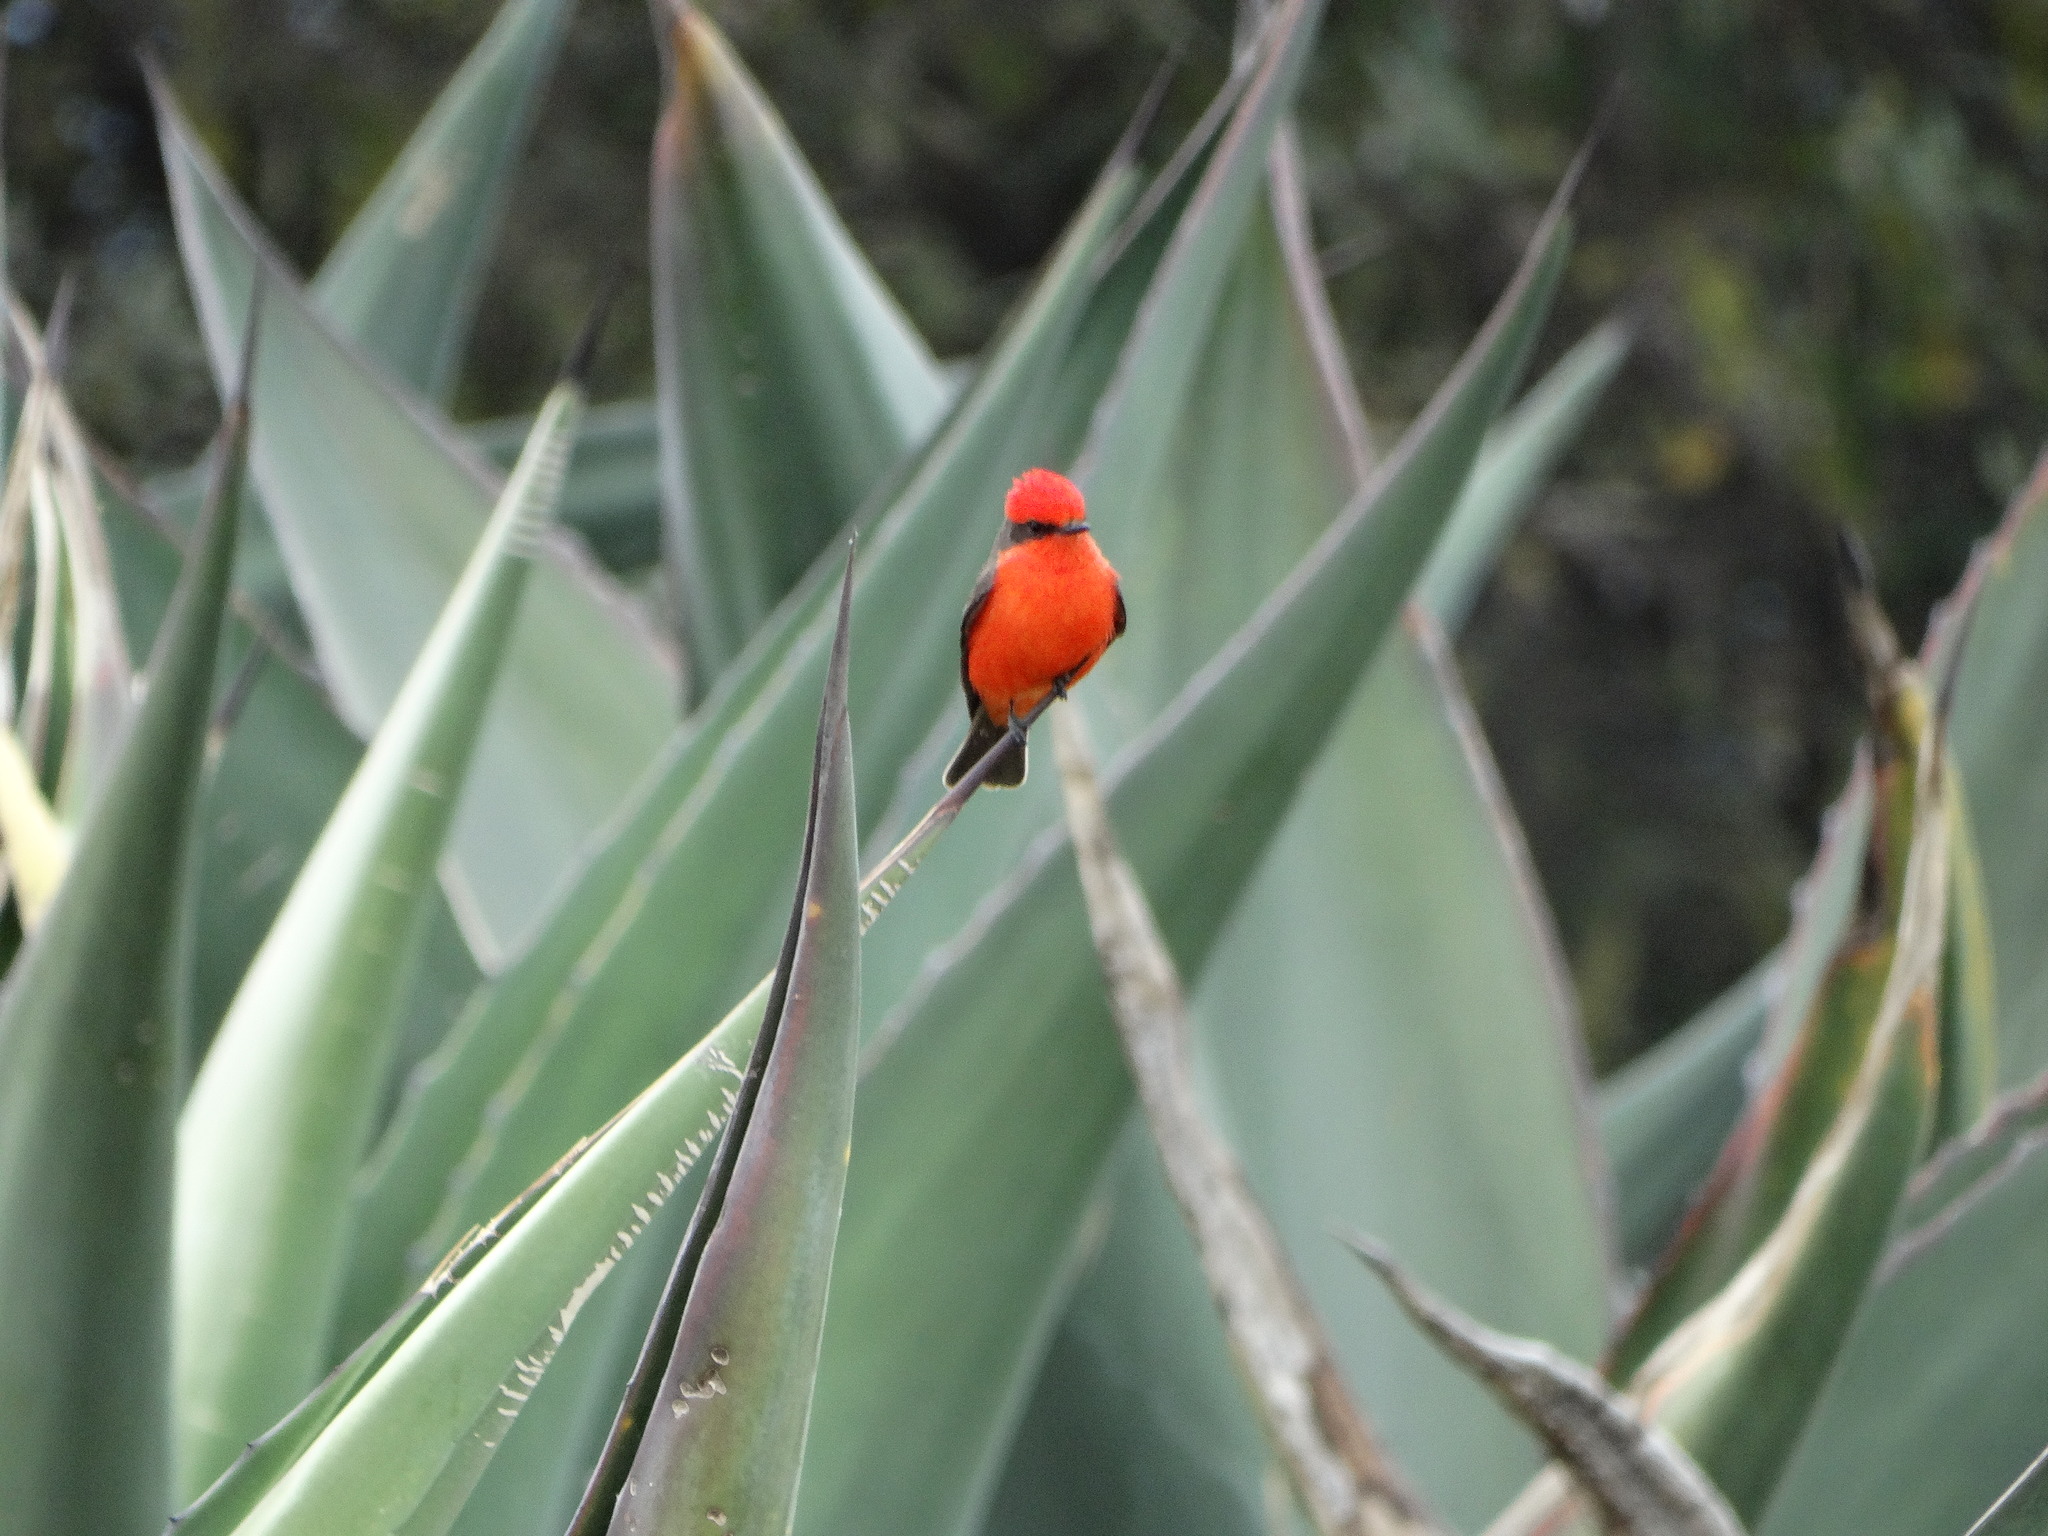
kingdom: Animalia
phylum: Chordata
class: Aves
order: Passeriformes
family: Tyrannidae
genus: Pyrocephalus
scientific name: Pyrocephalus rubinus
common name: Vermilion flycatcher
